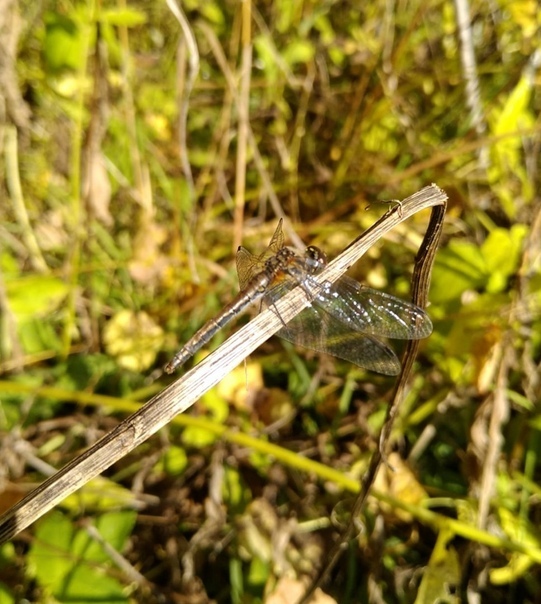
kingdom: Animalia
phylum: Arthropoda
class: Insecta
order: Odonata
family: Libellulidae
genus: Sympetrum
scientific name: Sympetrum danae
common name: Black darter
